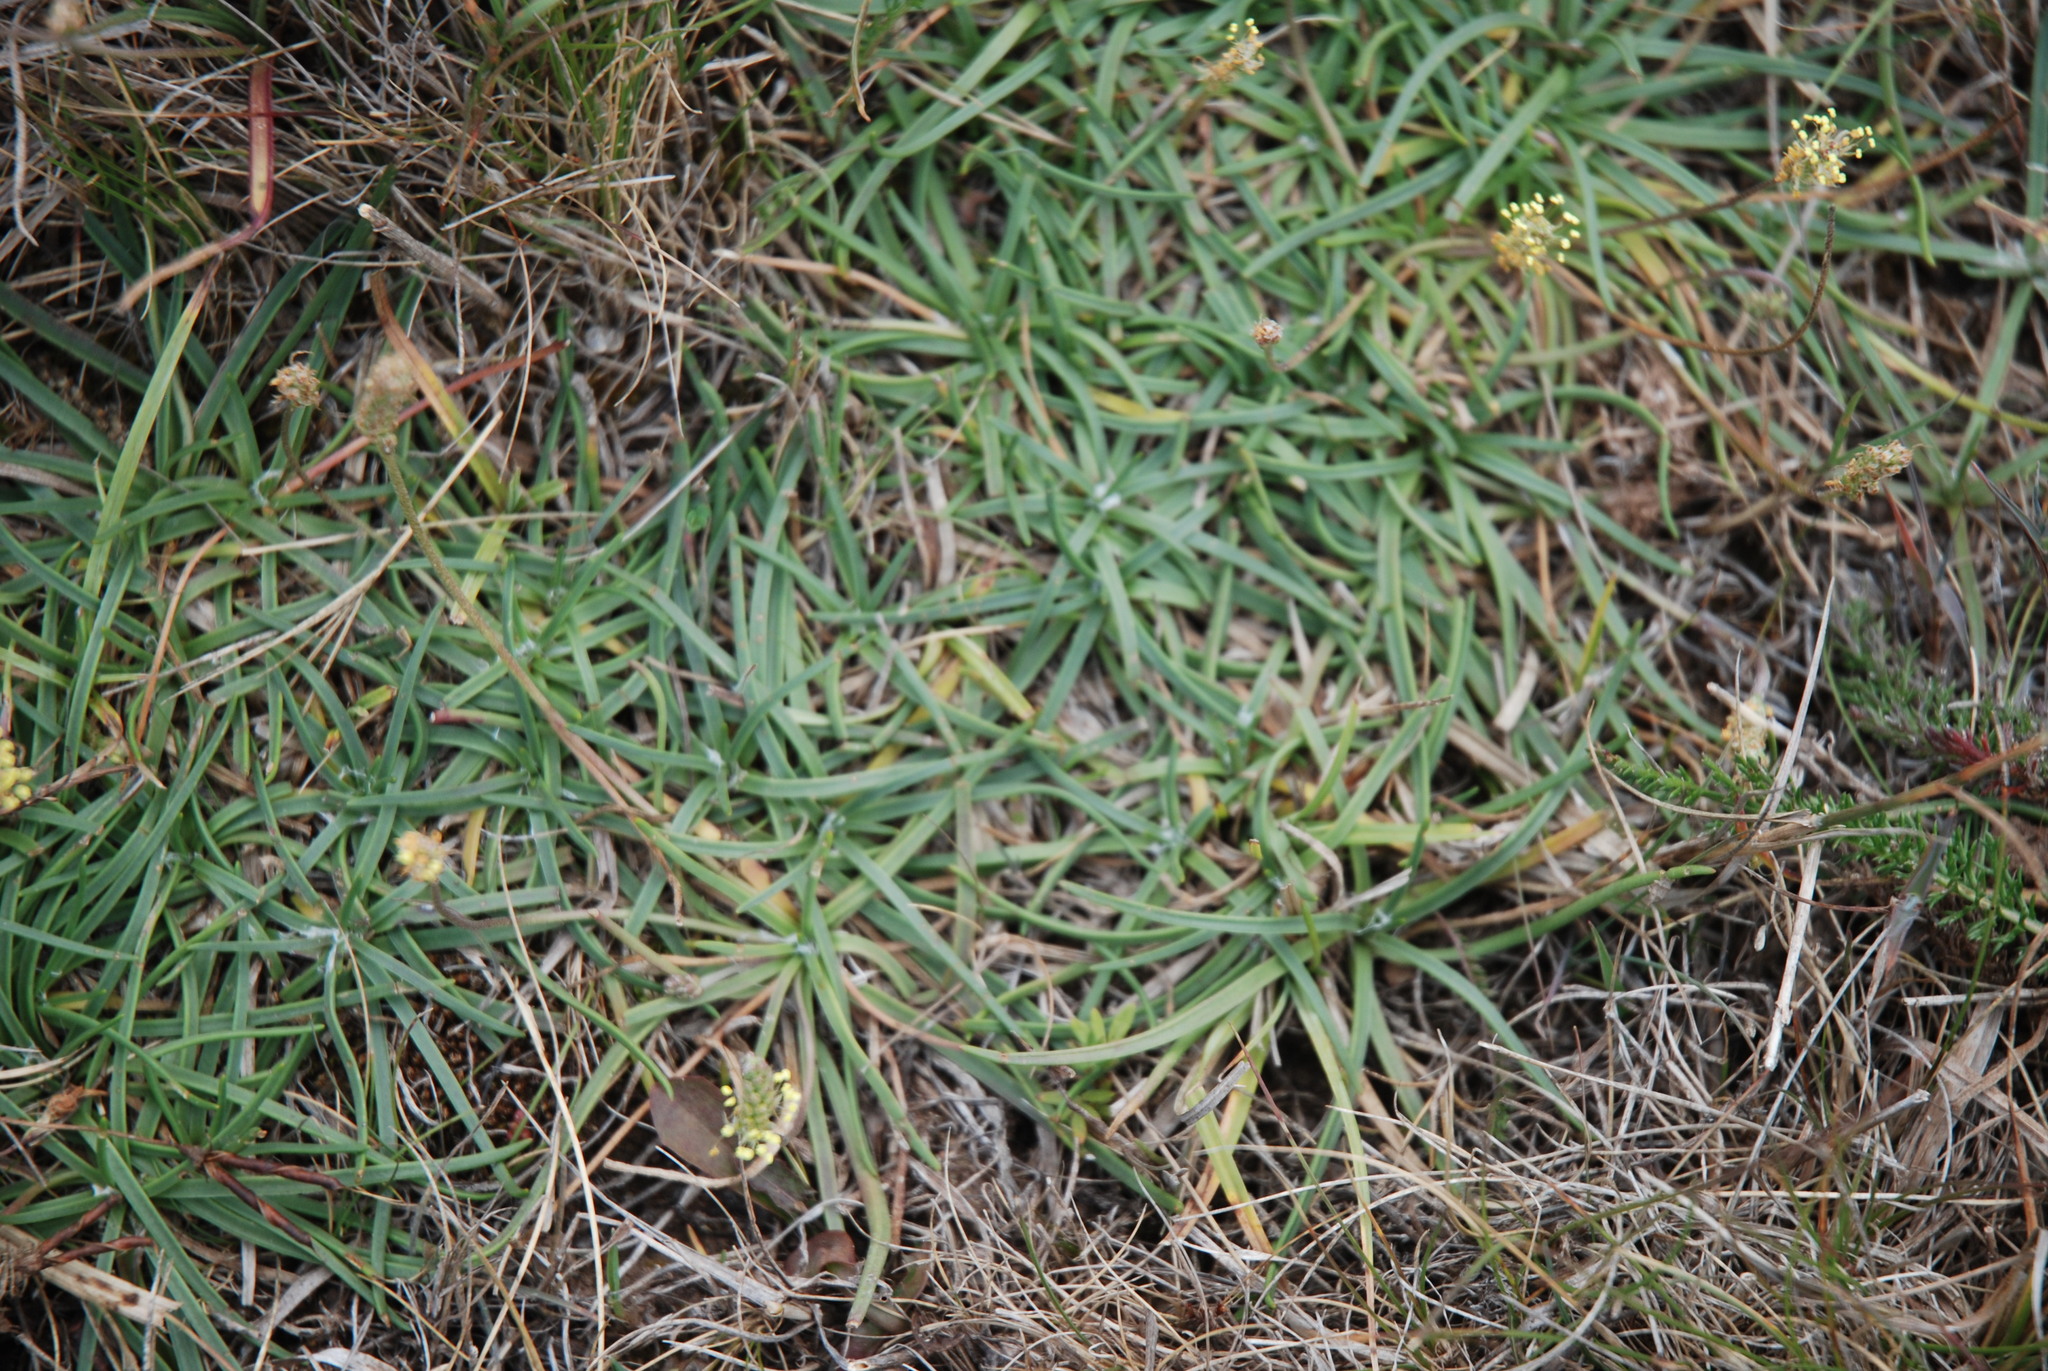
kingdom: Plantae
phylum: Tracheophyta
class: Magnoliopsida
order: Lamiales
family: Plantaginaceae
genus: Plantago
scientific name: Plantago maritima
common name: Sea plantain
